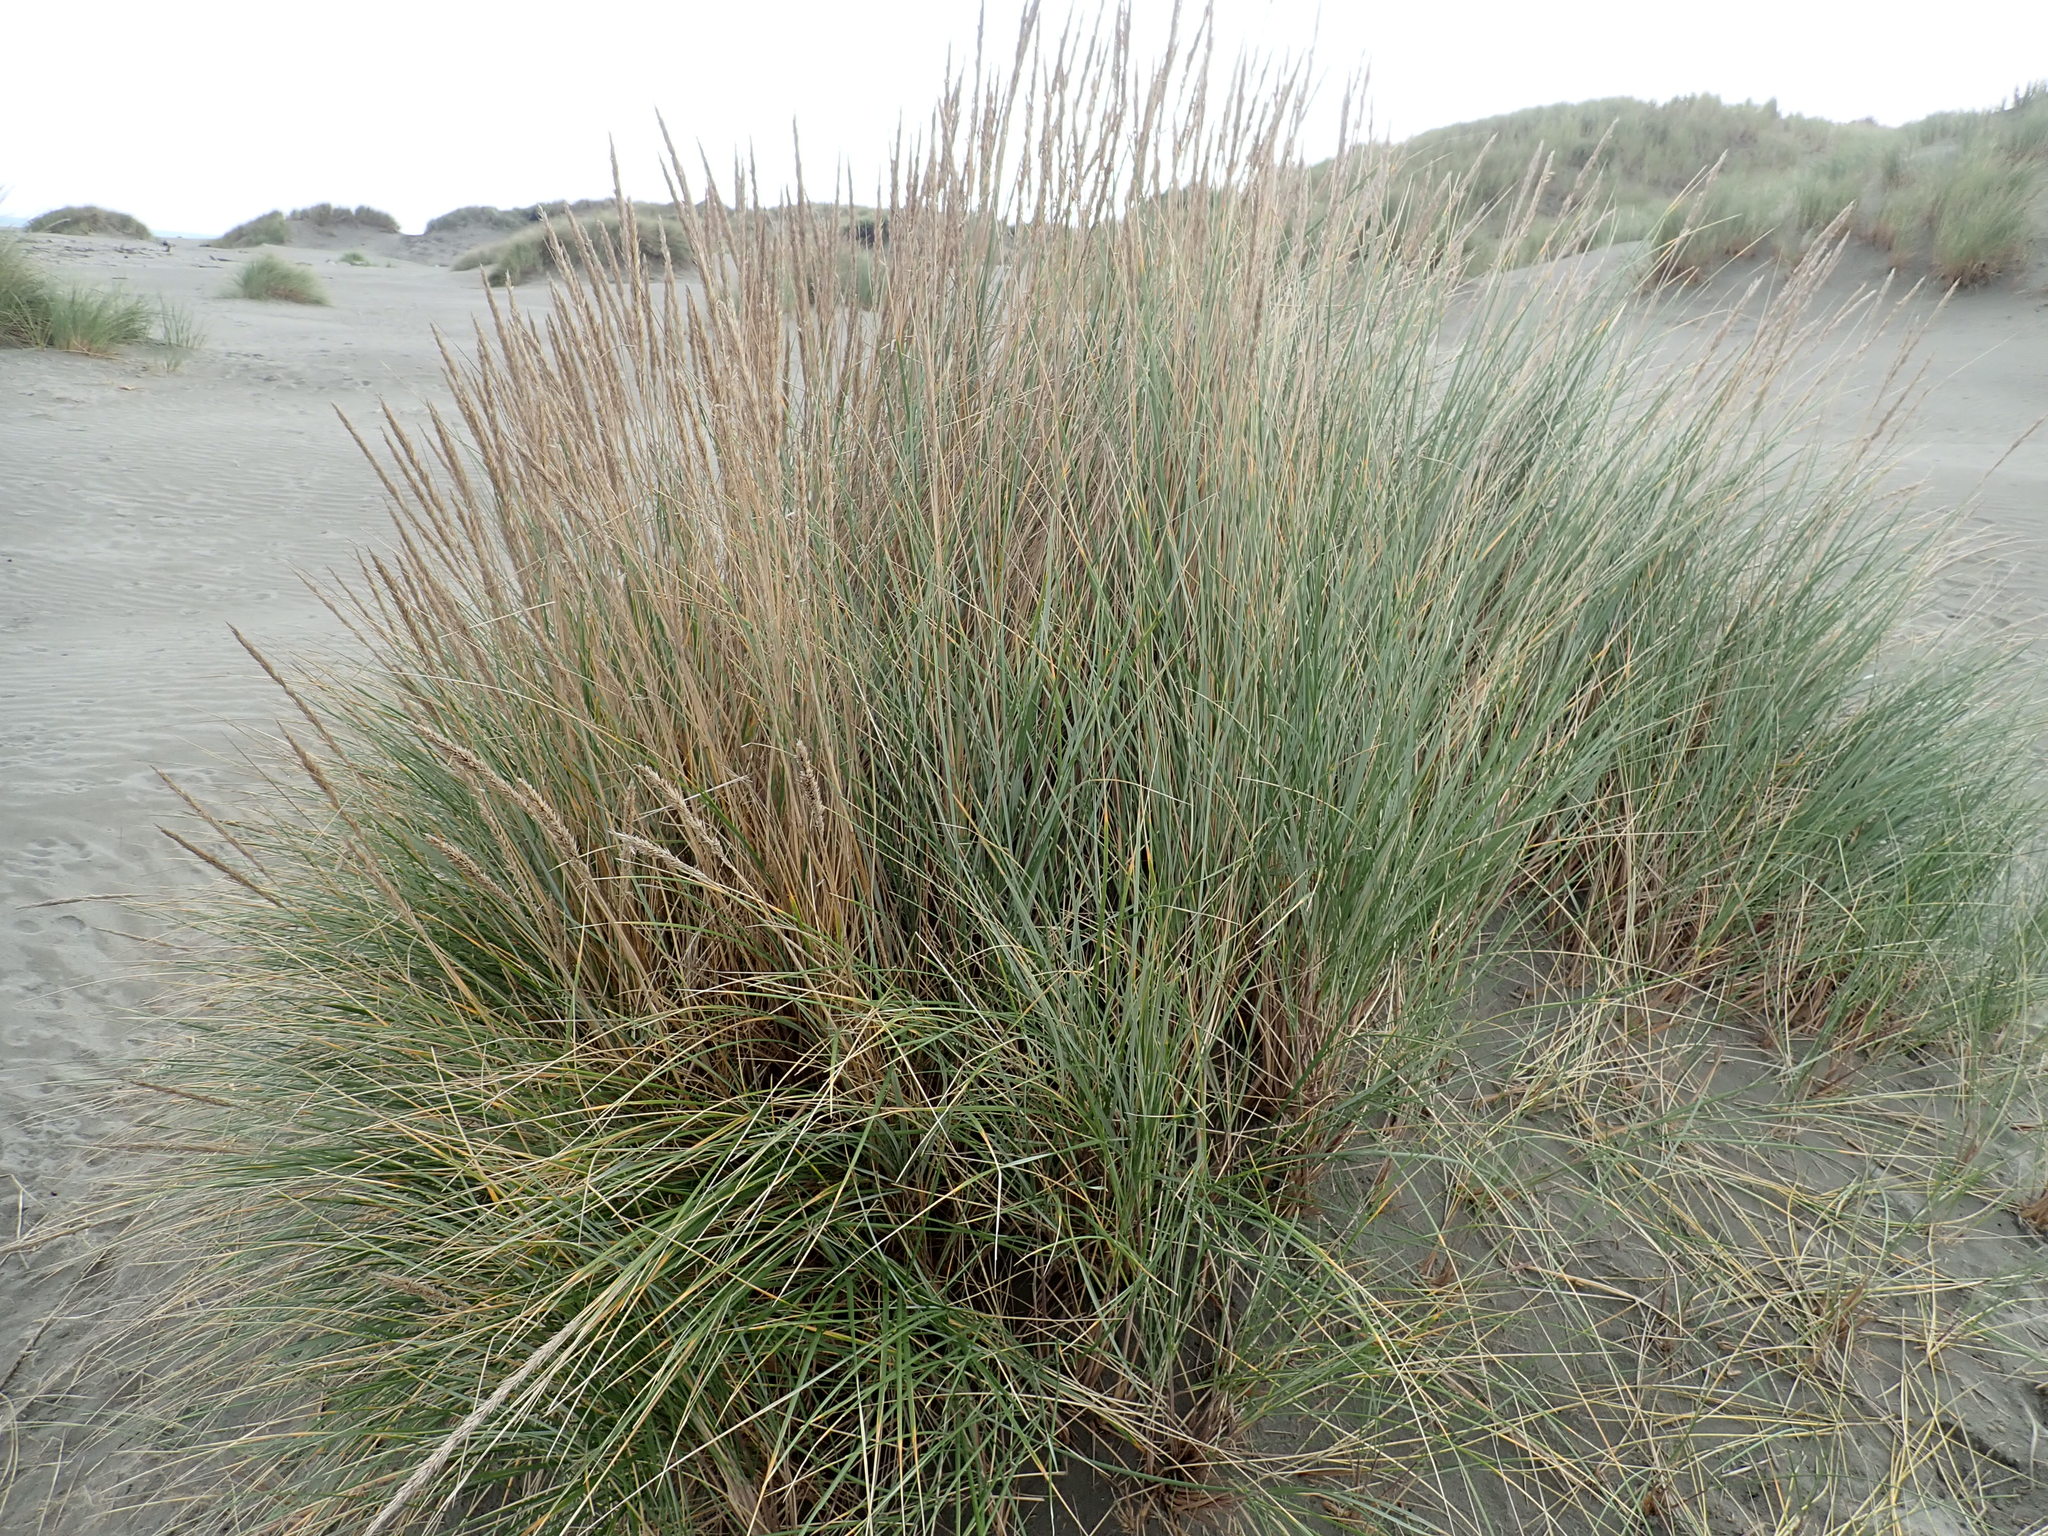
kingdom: Plantae
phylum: Tracheophyta
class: Liliopsida
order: Poales
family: Poaceae
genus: Calamagrostis
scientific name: Calamagrostis arenaria
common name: European beachgrass
